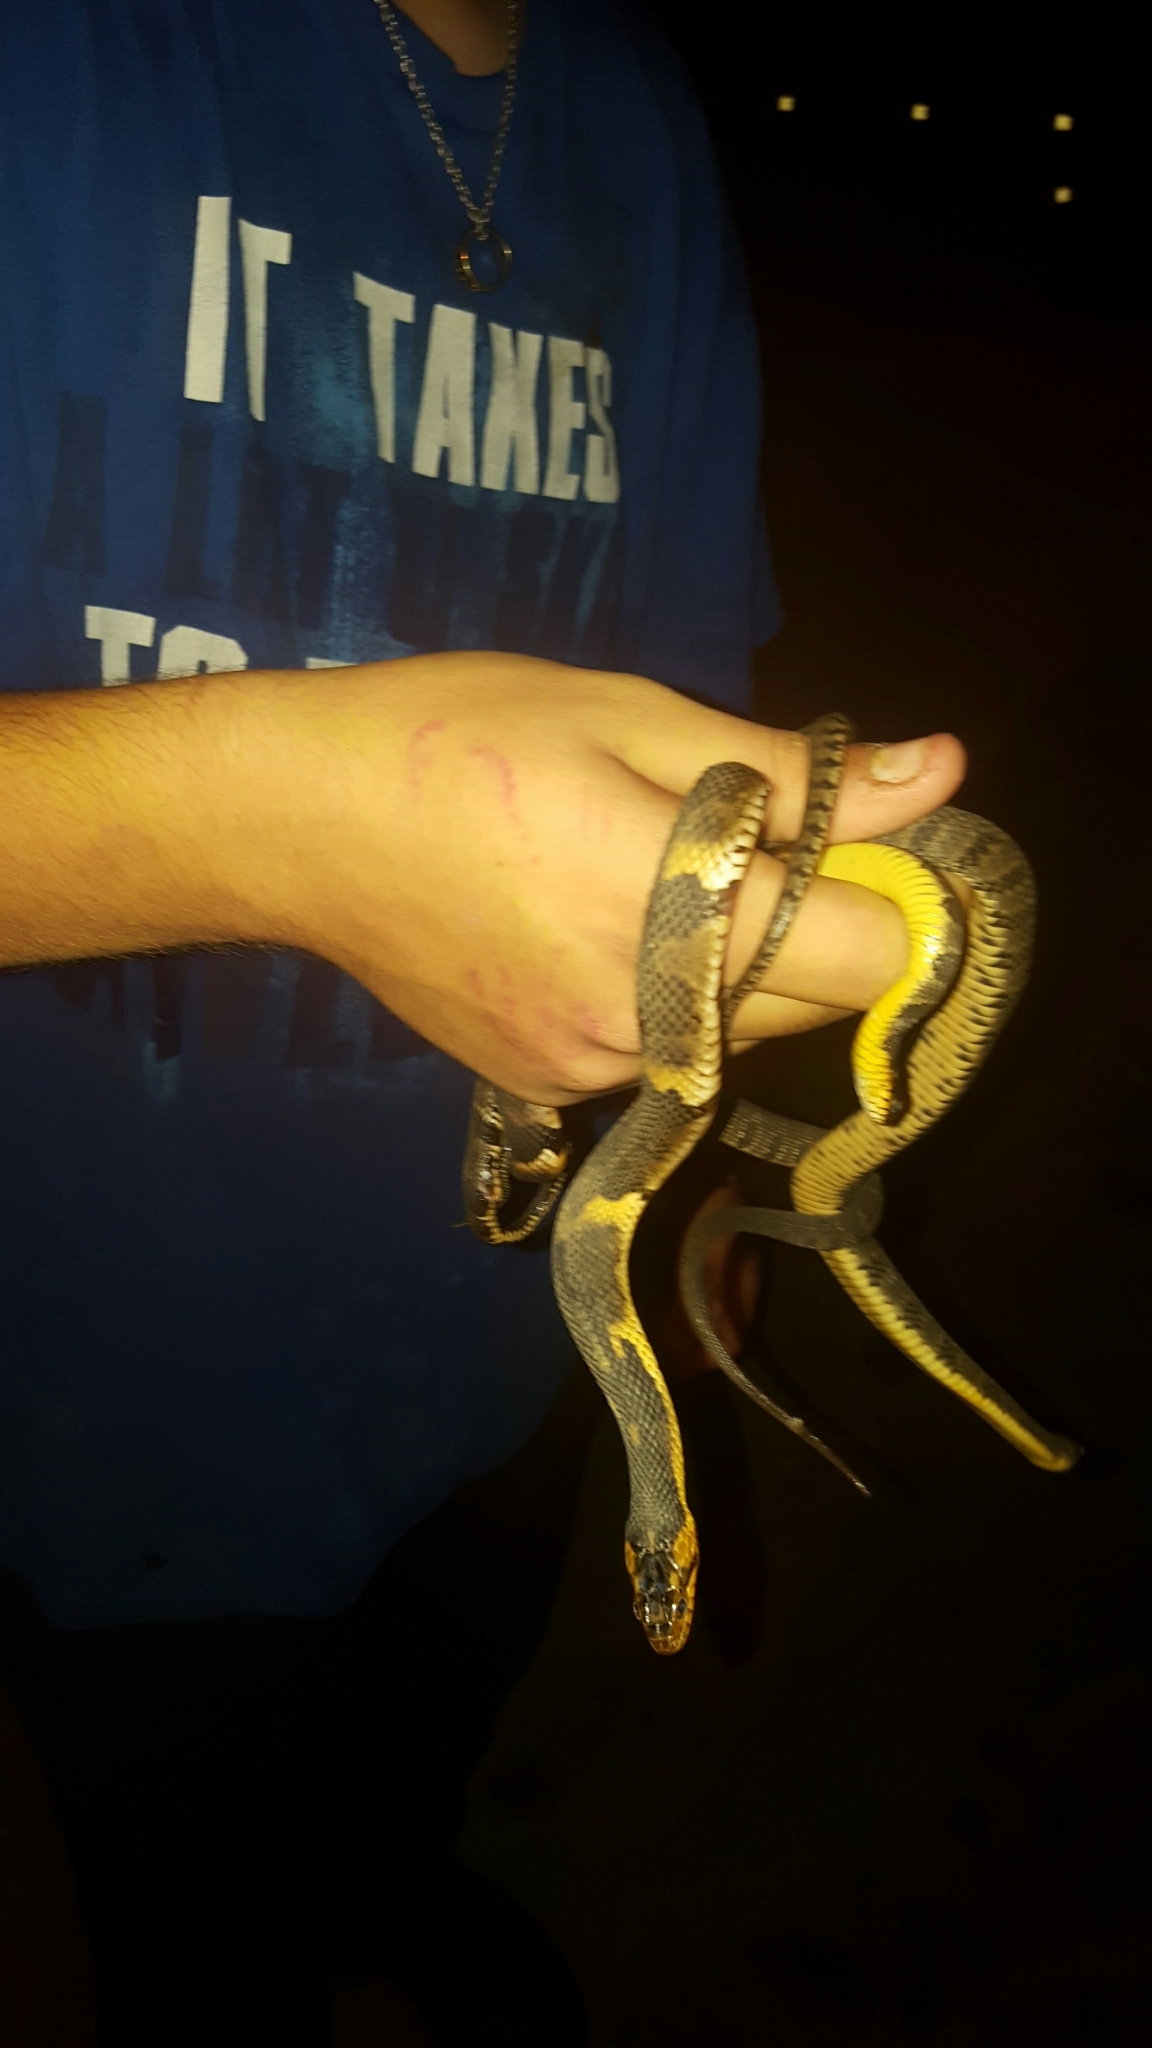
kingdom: Animalia
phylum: Chordata
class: Squamata
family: Colubridae
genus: Nerodia
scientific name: Nerodia fasciata
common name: Southern water snake
